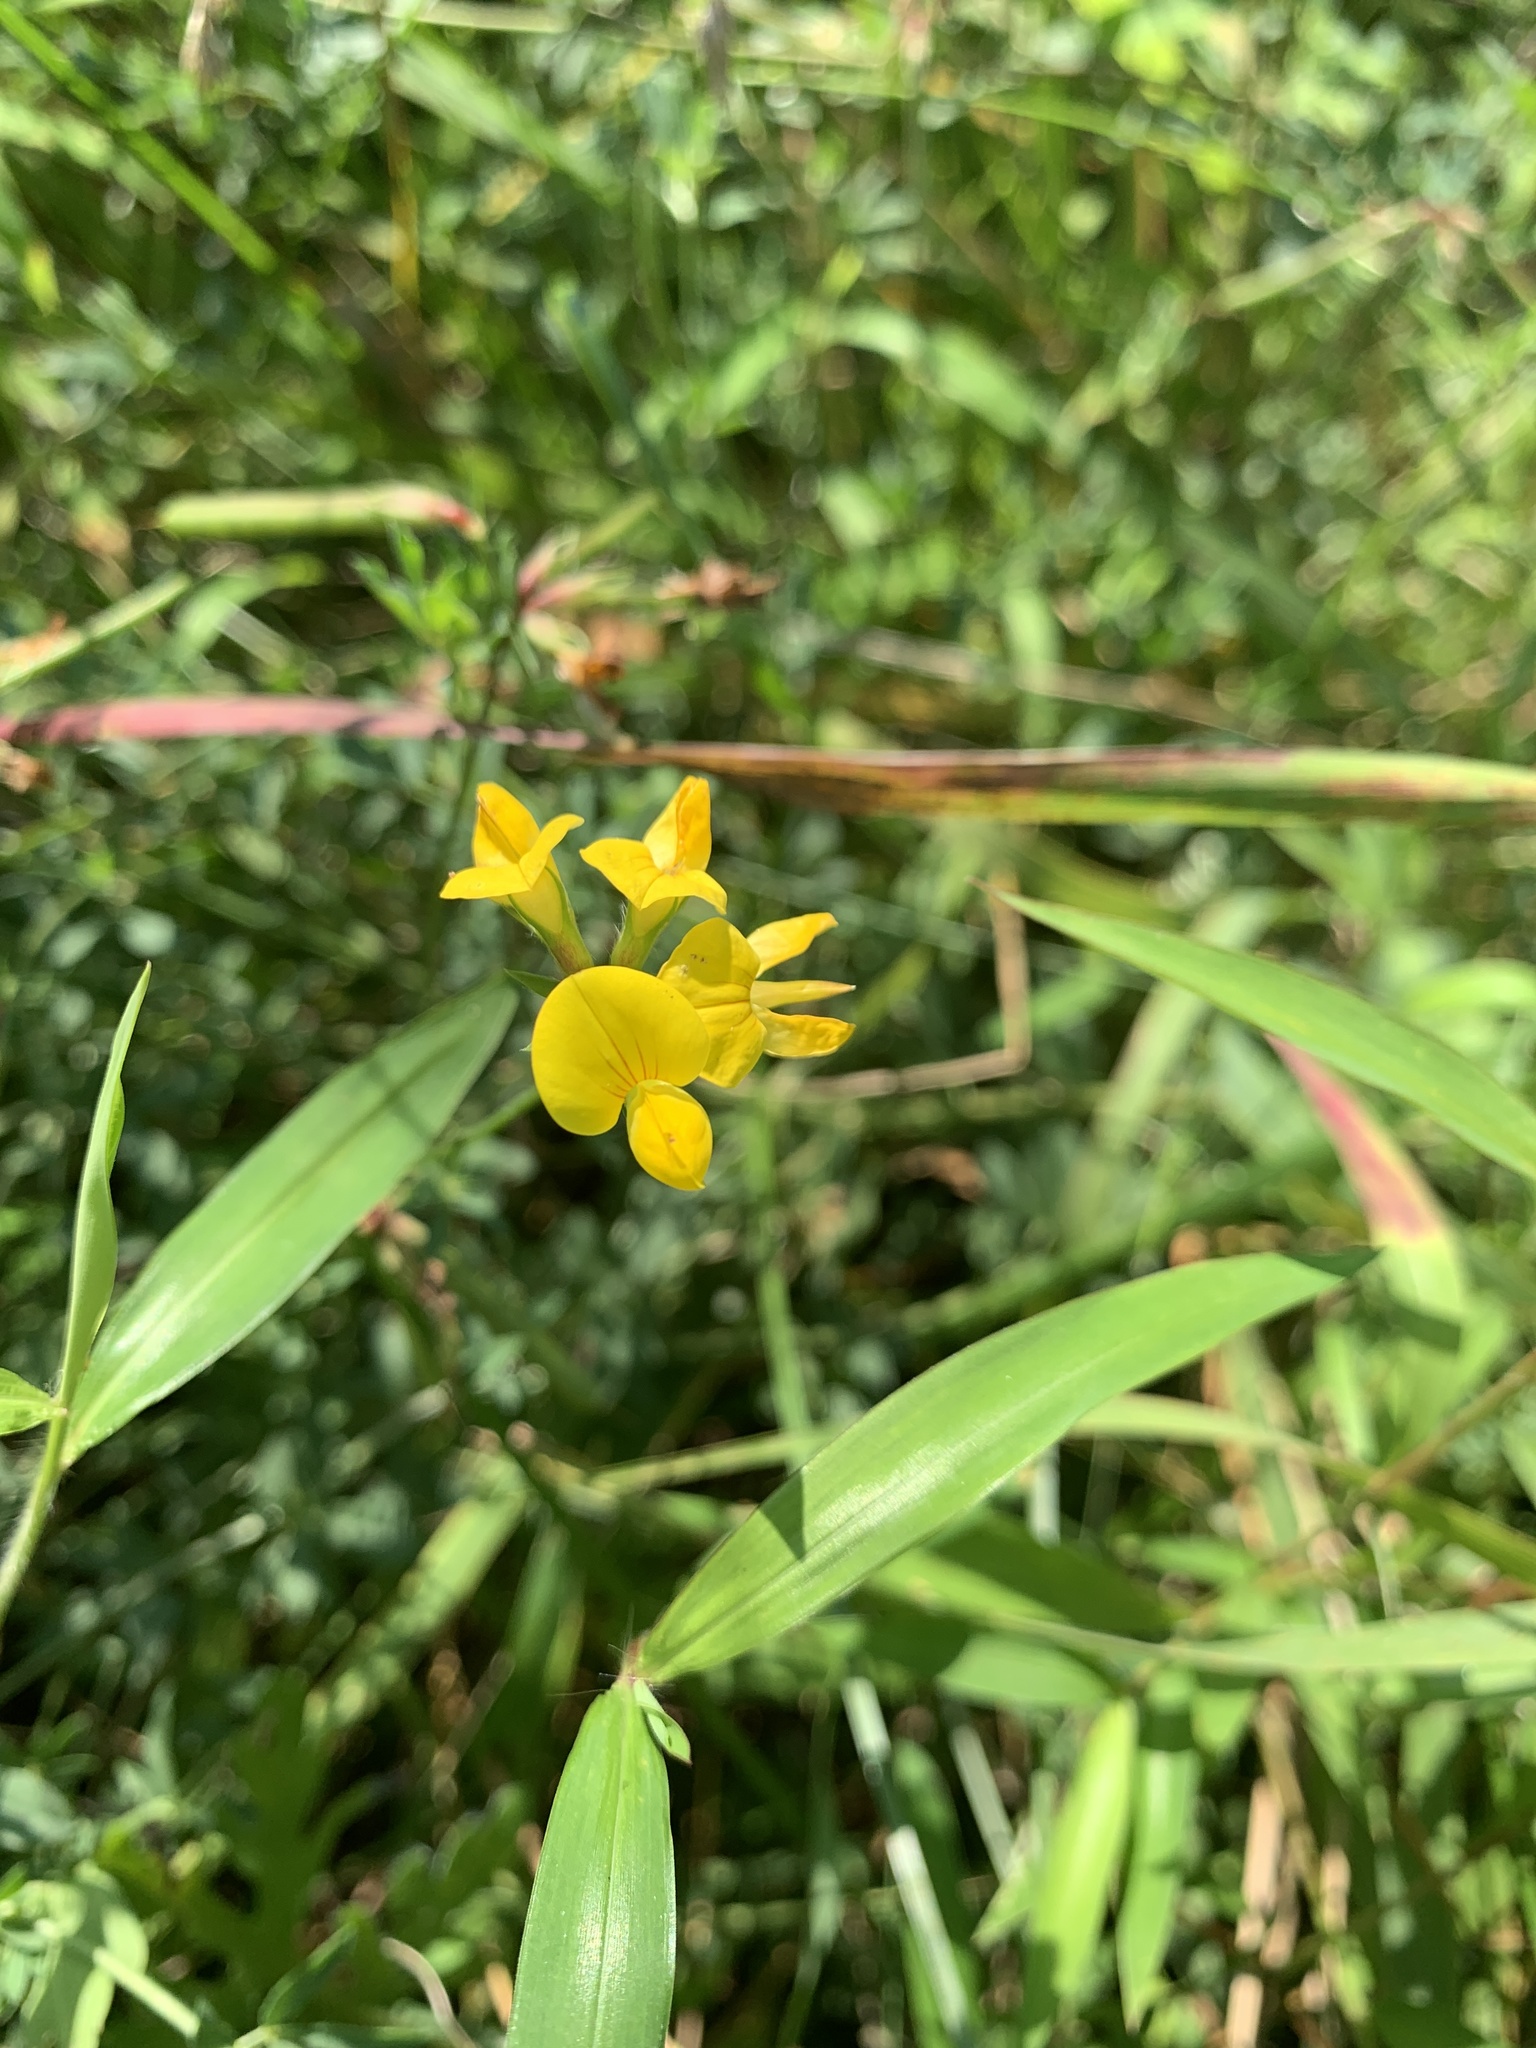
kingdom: Plantae
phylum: Tracheophyta
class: Magnoliopsida
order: Fabales
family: Fabaceae
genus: Lotus
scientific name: Lotus corniculatus
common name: Common bird's-foot-trefoil
